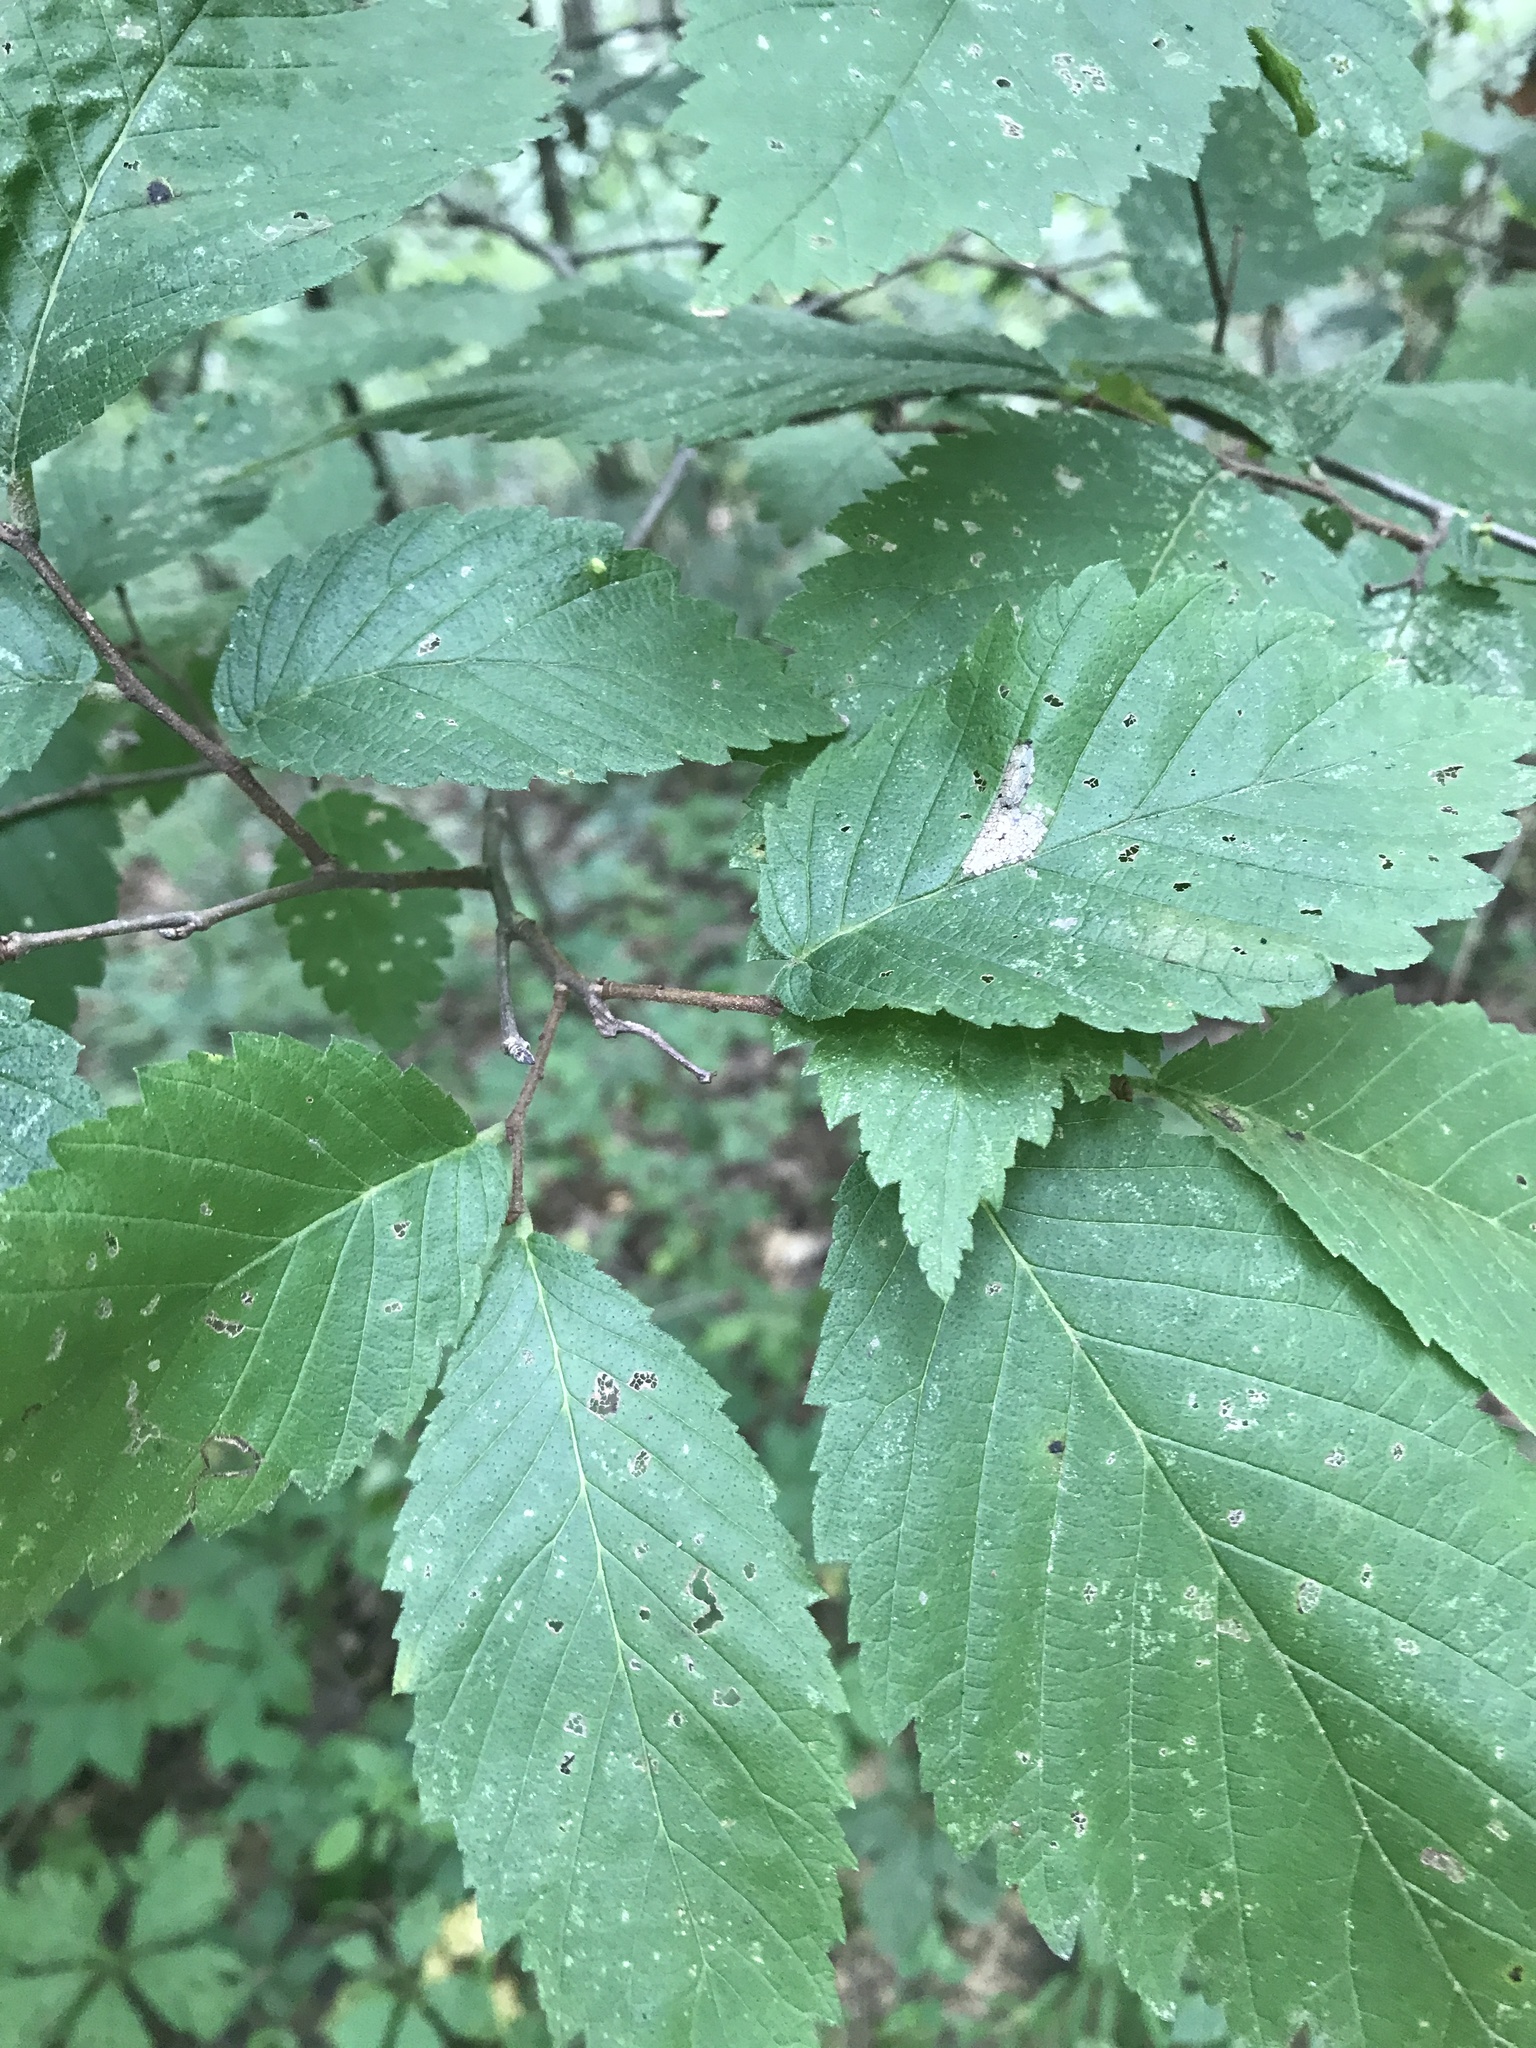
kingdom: Plantae
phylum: Tracheophyta
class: Magnoliopsida
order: Rosales
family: Ulmaceae
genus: Ulmus
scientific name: Ulmus
